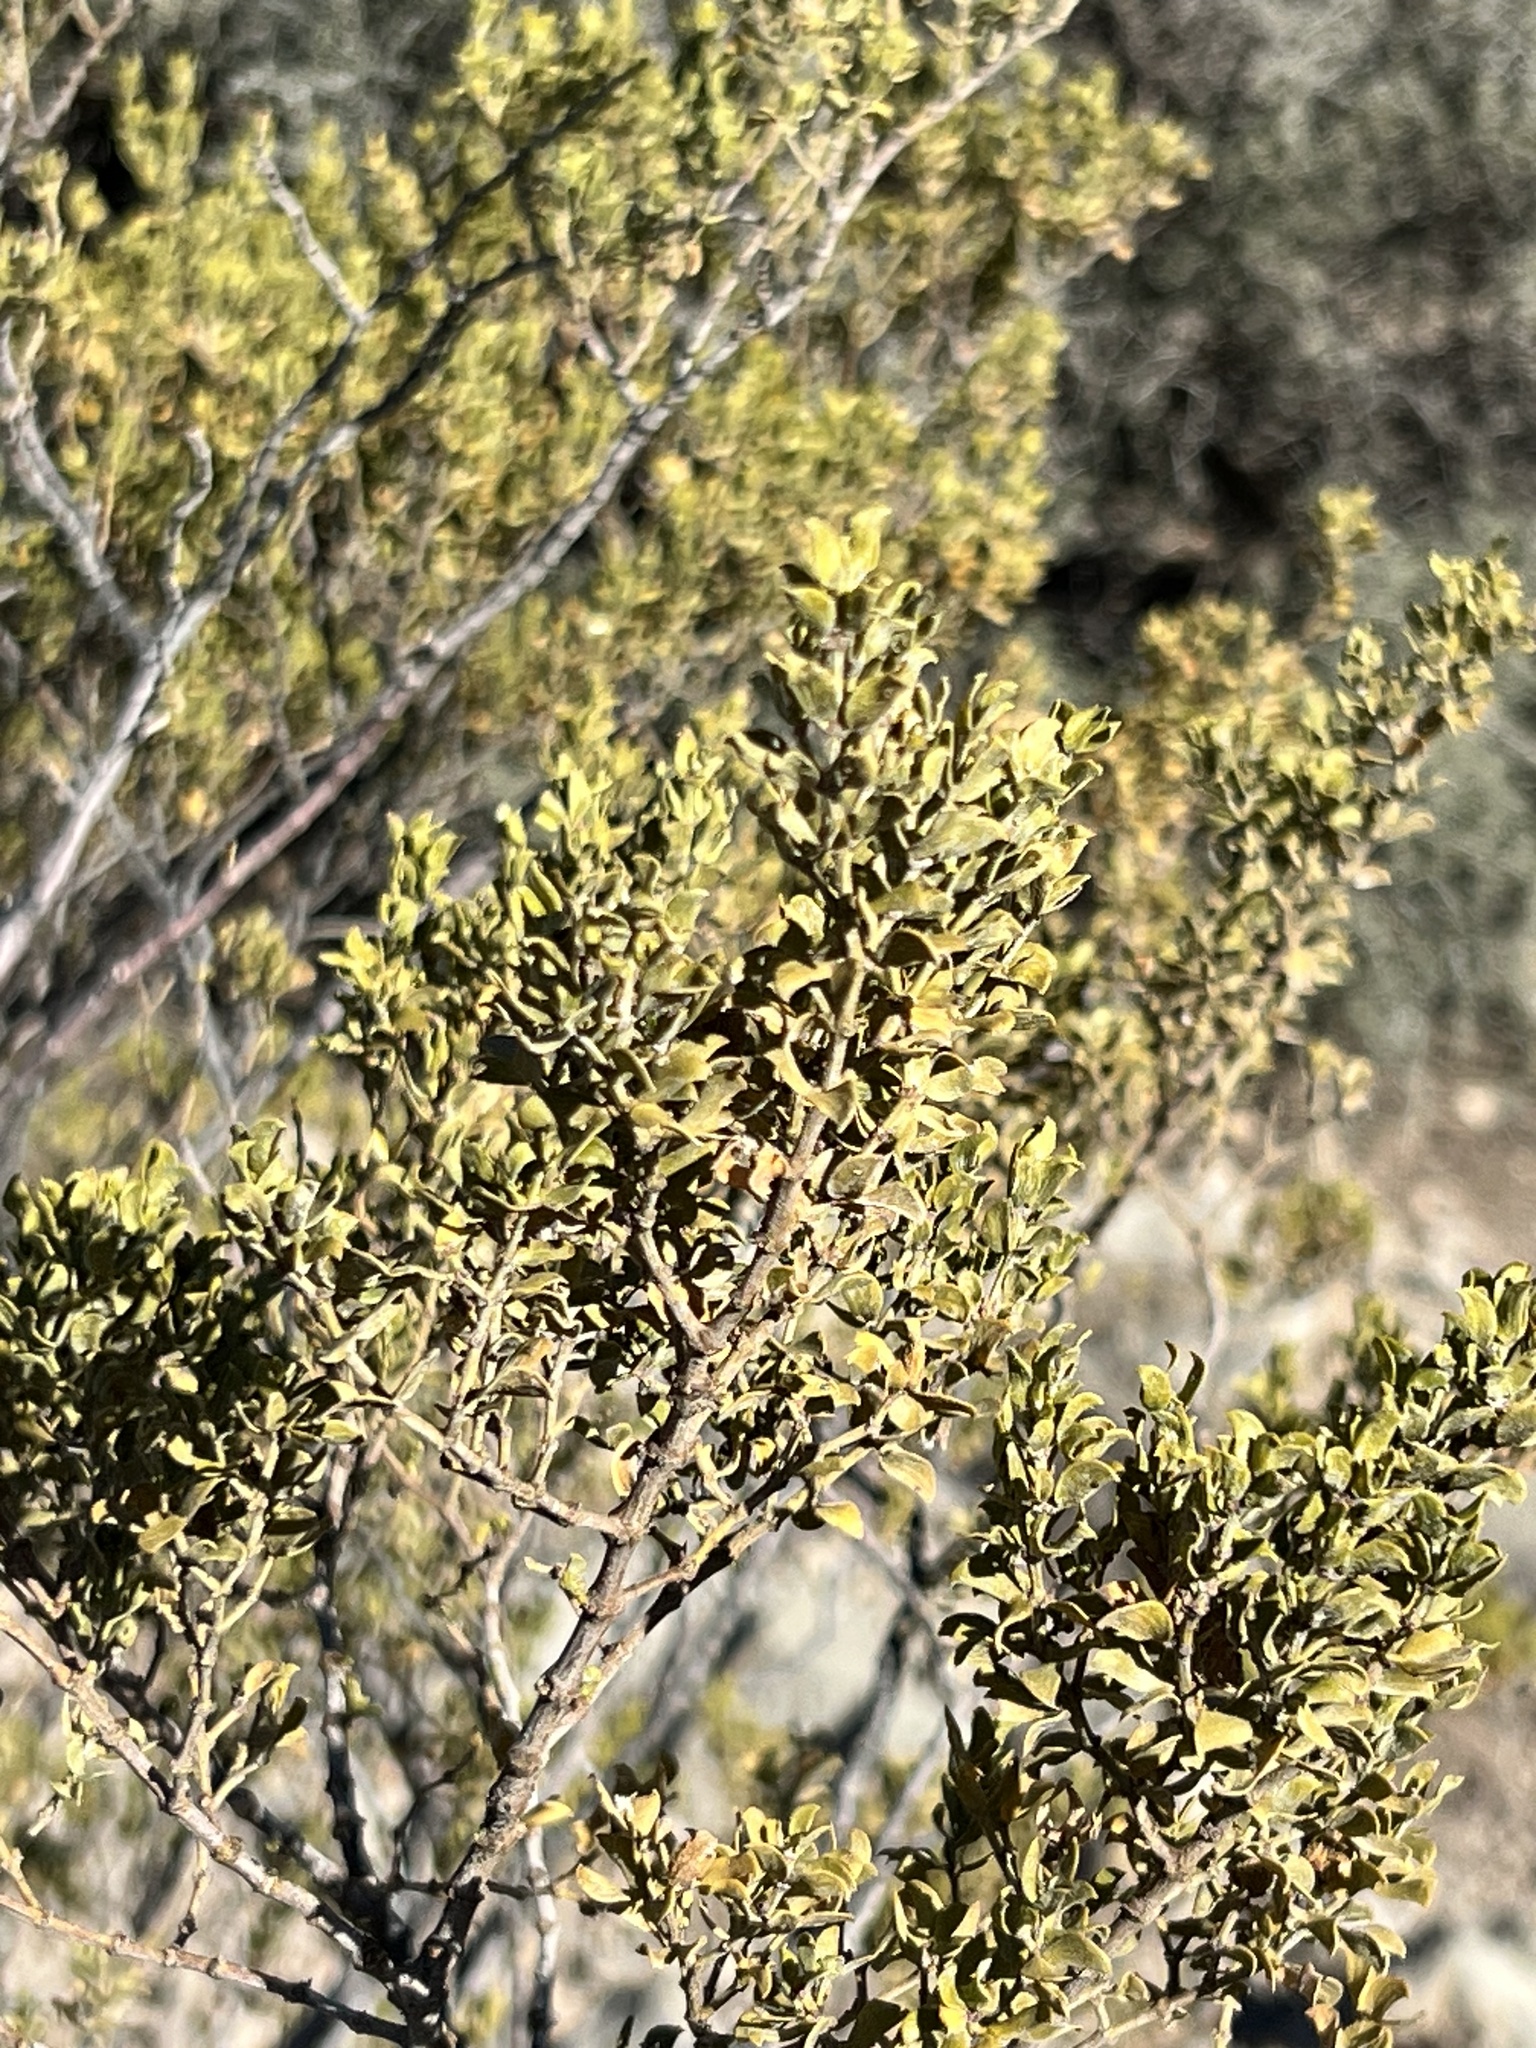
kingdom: Plantae
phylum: Tracheophyta
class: Magnoliopsida
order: Zygophyllales
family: Zygophyllaceae
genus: Larrea
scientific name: Larrea tridentata
